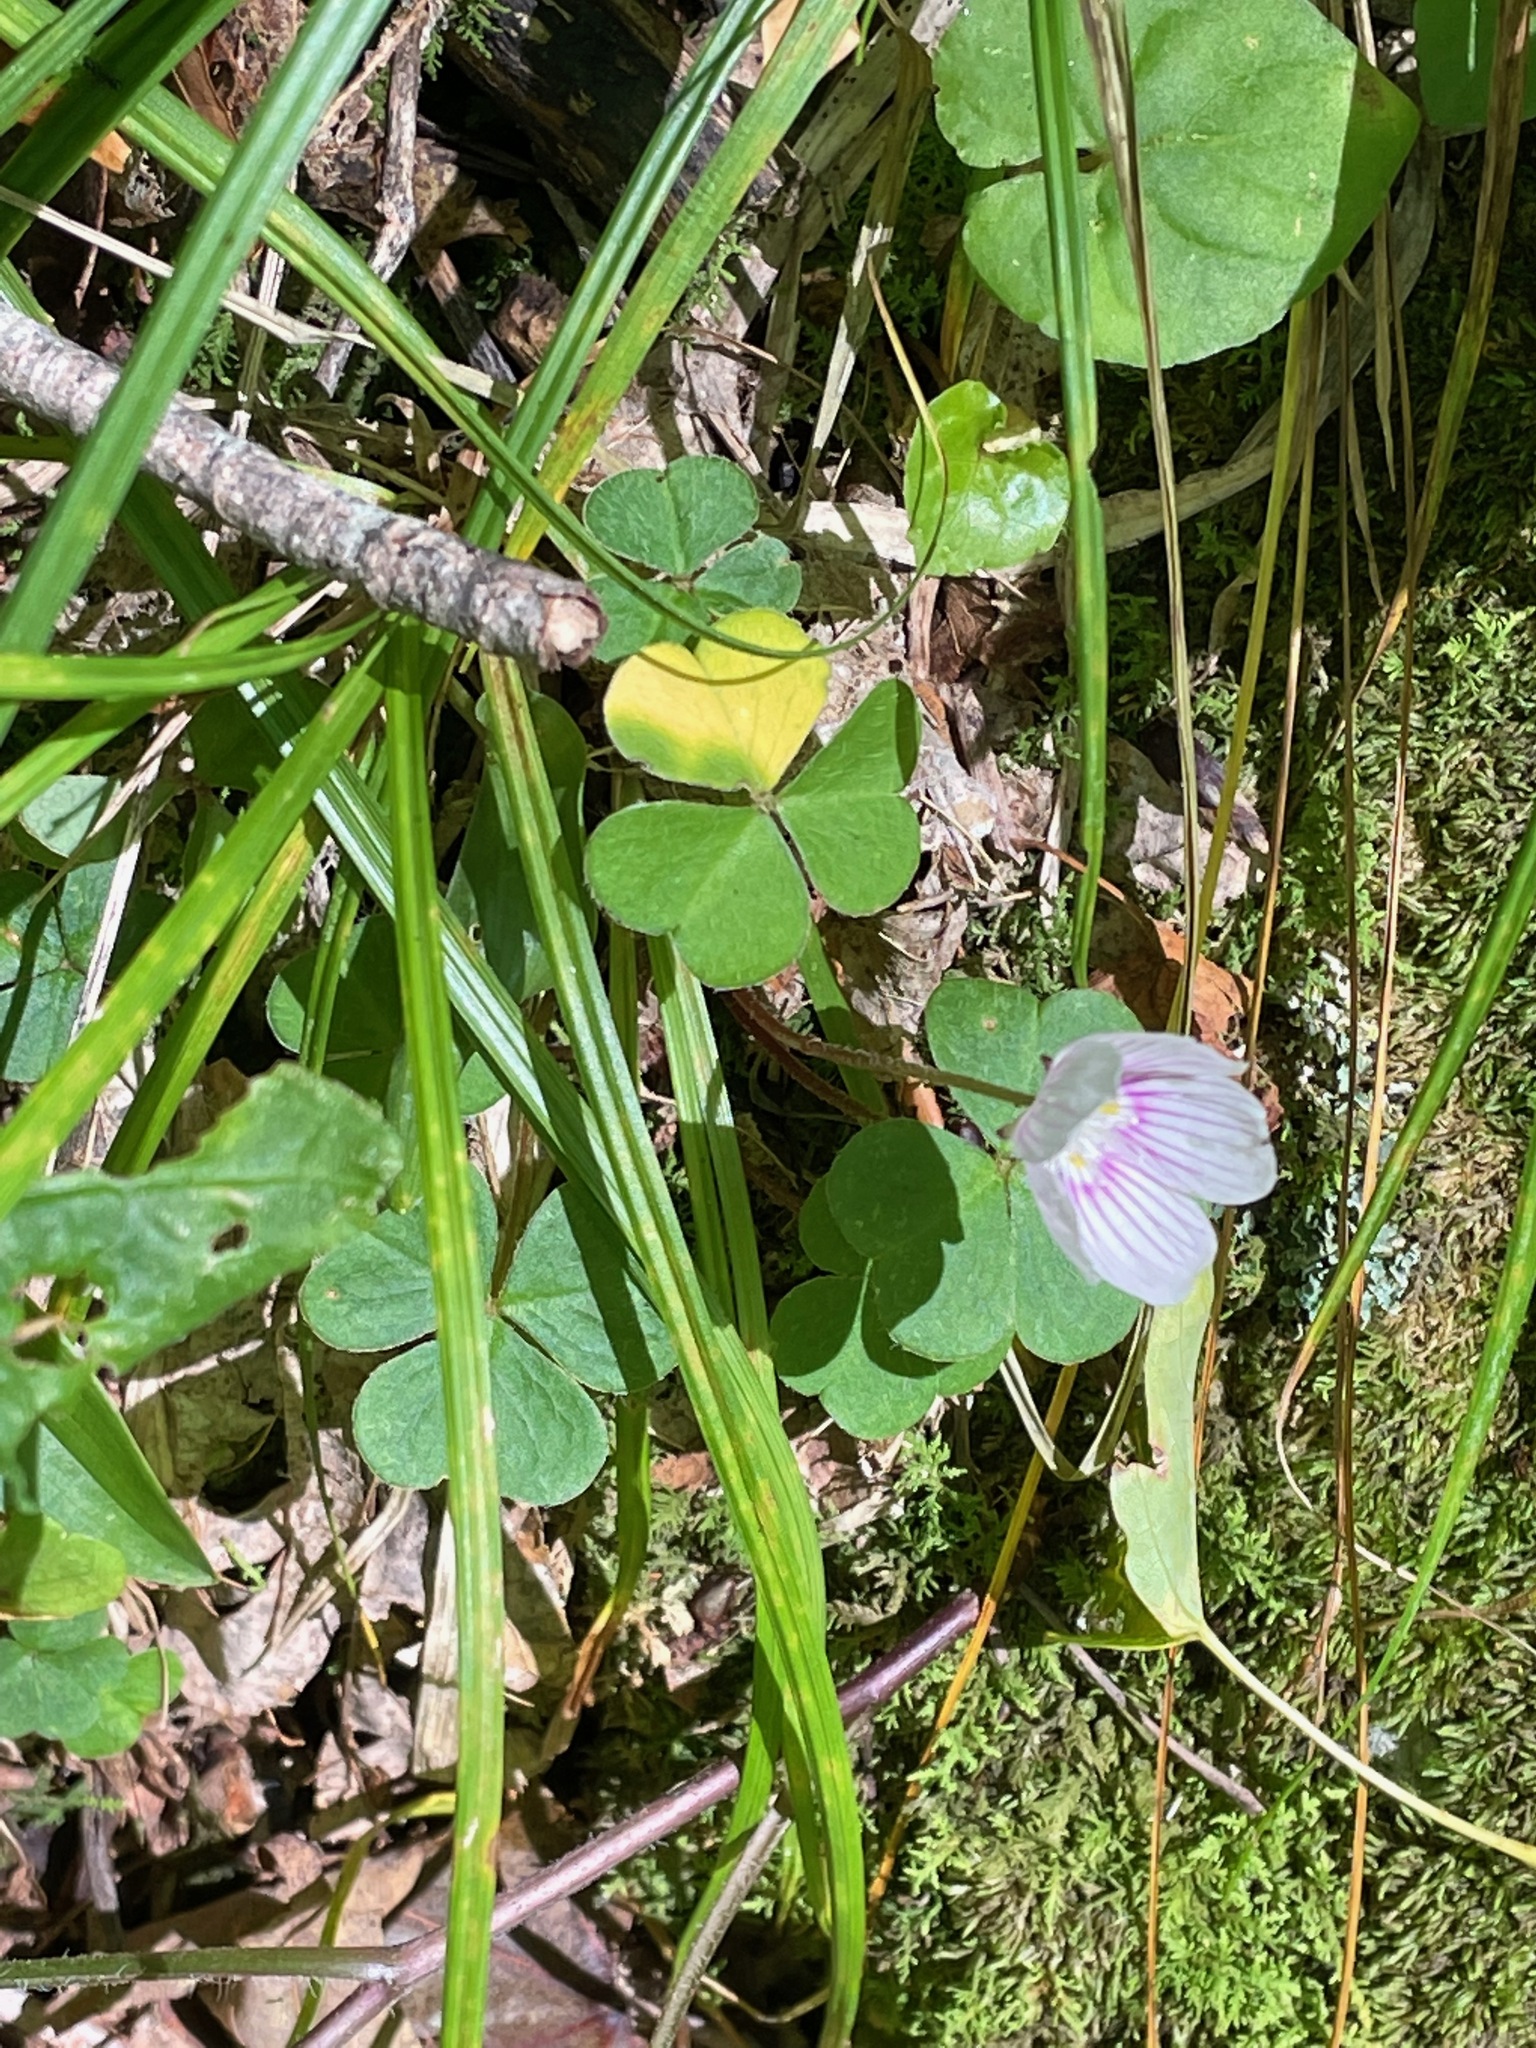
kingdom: Plantae
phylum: Tracheophyta
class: Magnoliopsida
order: Oxalidales
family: Oxalidaceae
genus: Oxalis
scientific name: Oxalis montana
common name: American wood-sorrel
